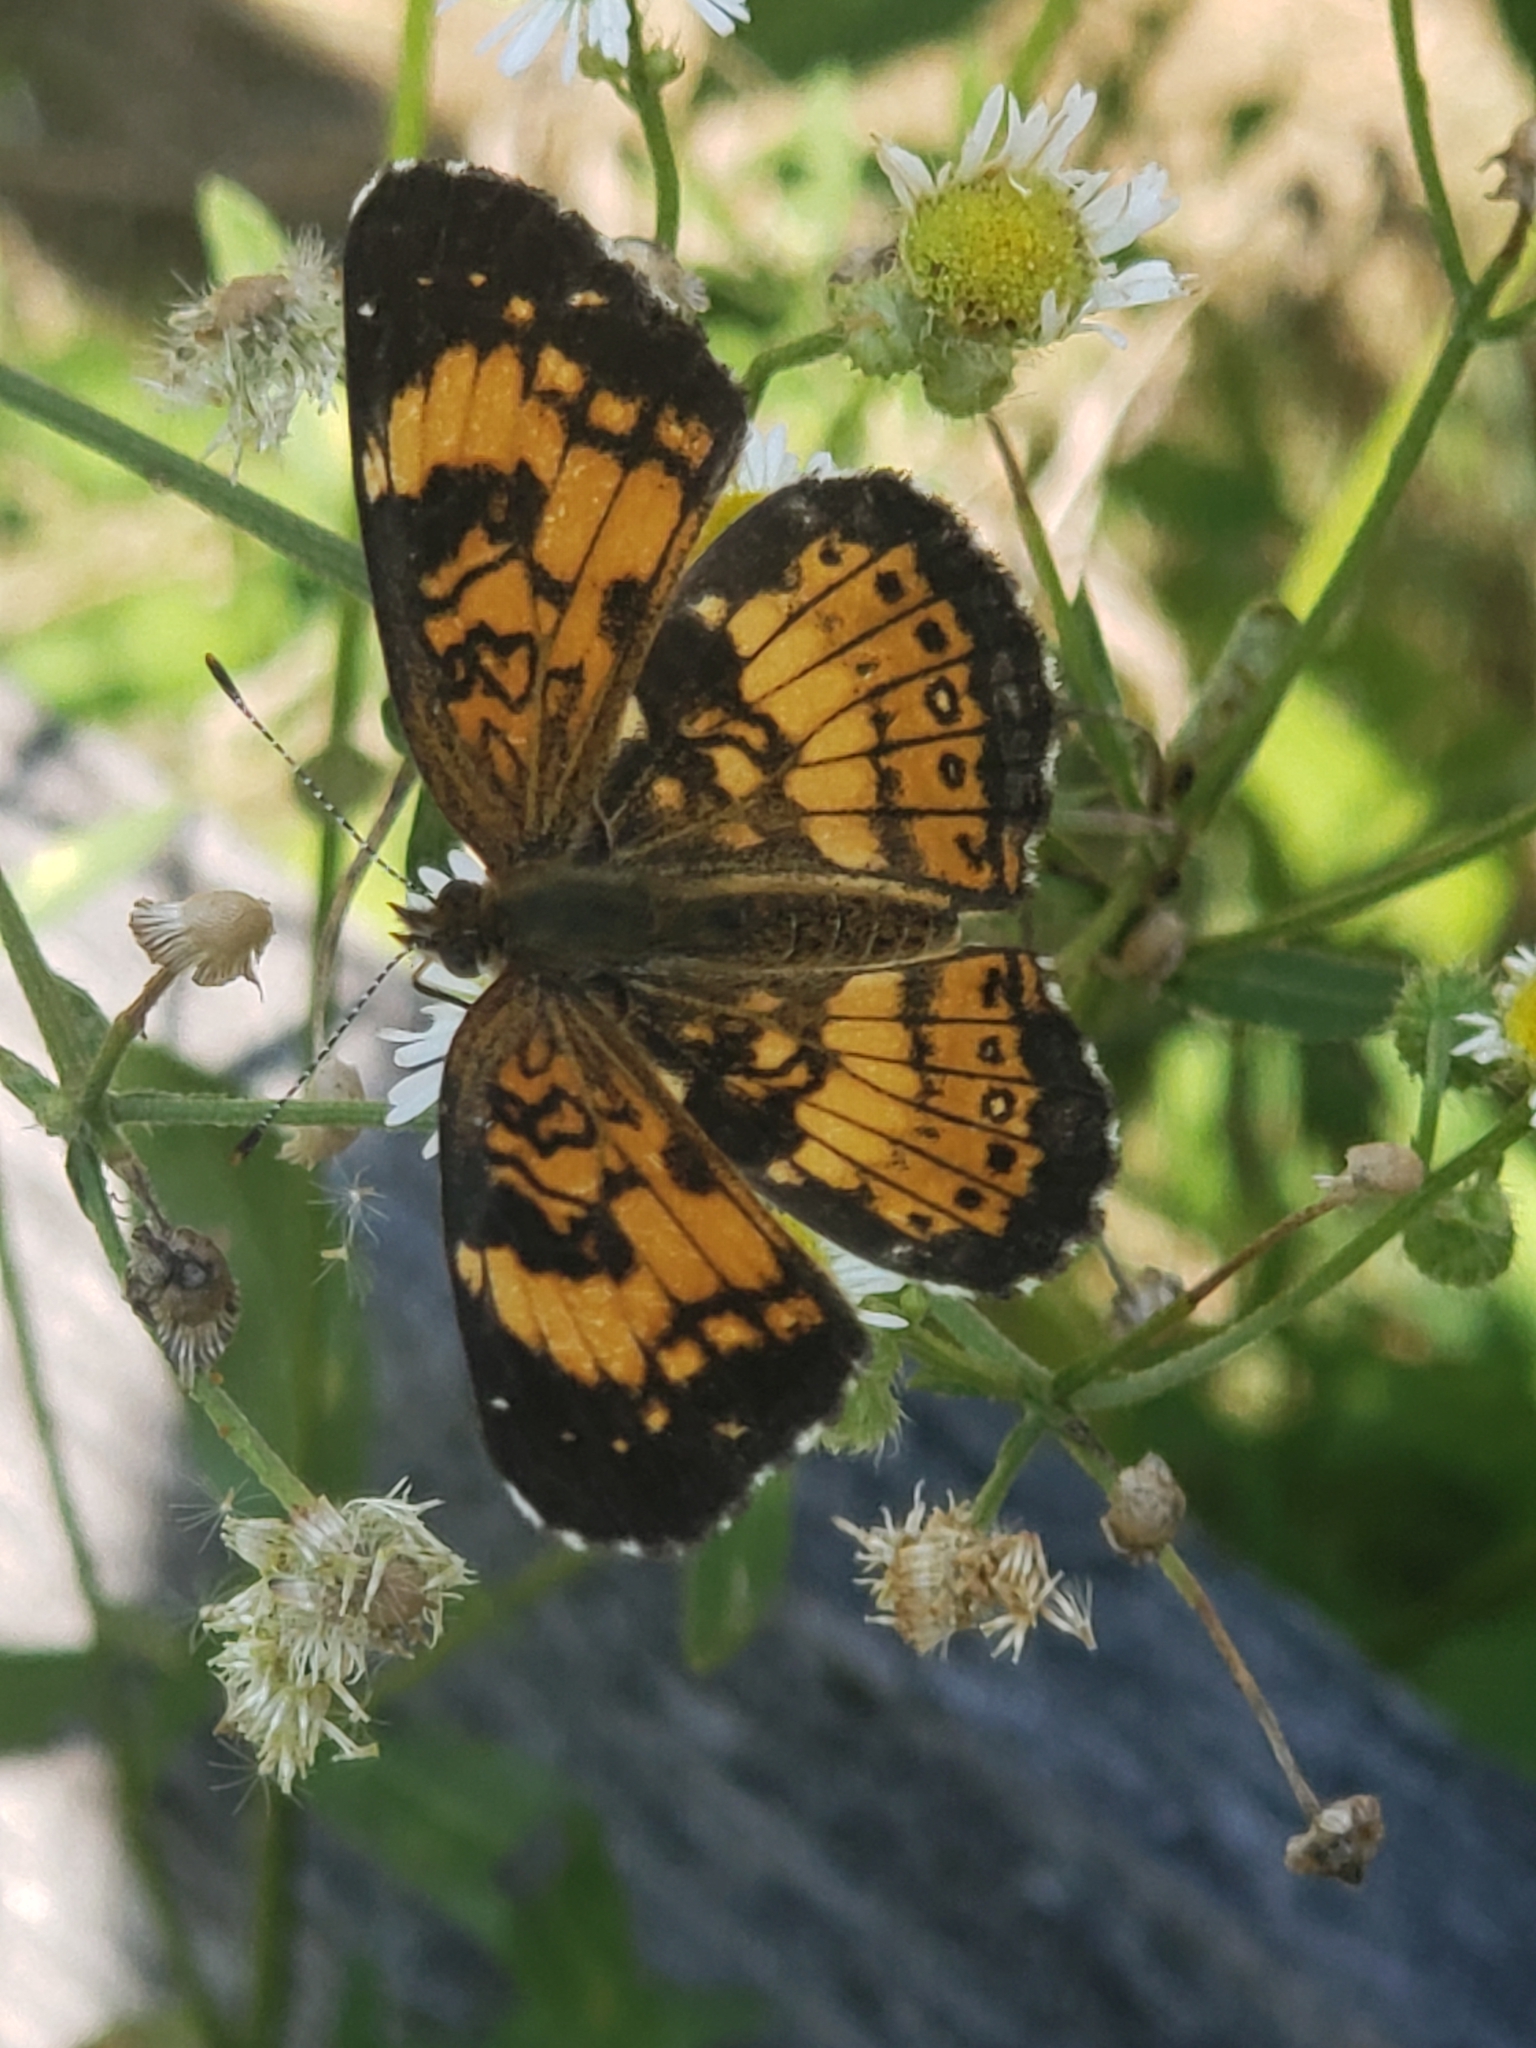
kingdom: Animalia
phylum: Arthropoda
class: Insecta
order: Lepidoptera
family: Nymphalidae
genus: Chlosyne
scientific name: Chlosyne nycteis
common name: Silvery checkerspot
